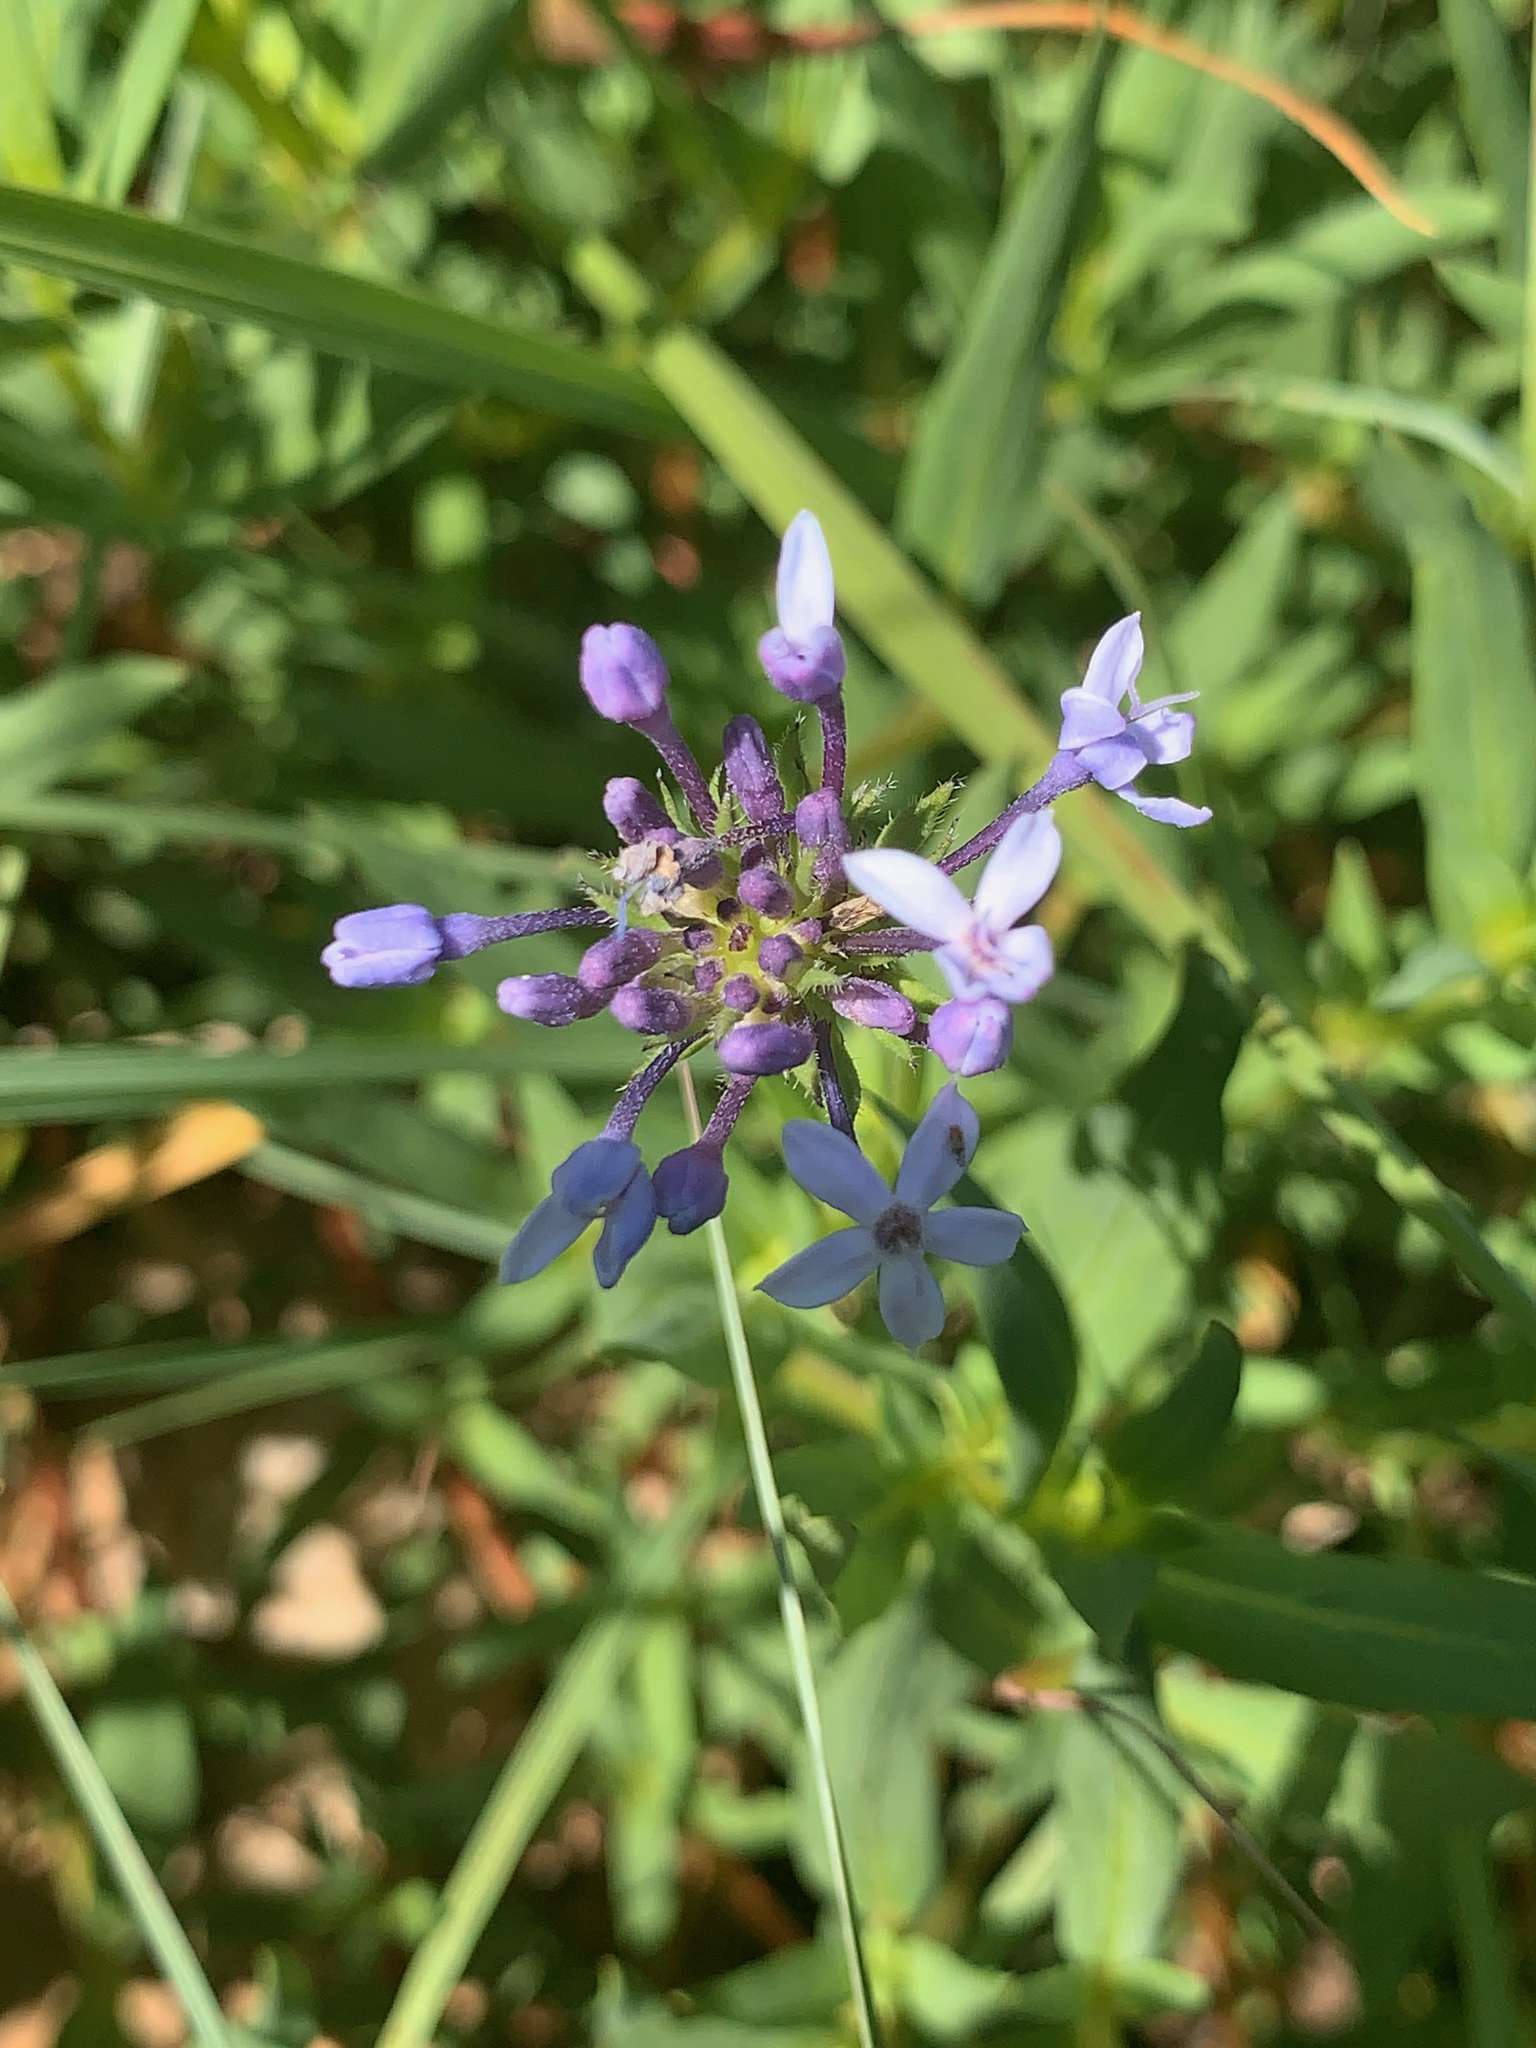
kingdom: Plantae
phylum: Tracheophyta
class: Magnoliopsida
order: Gentianales
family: Rubiaceae
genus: Pentanisia
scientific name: Pentanisia angustifolia
